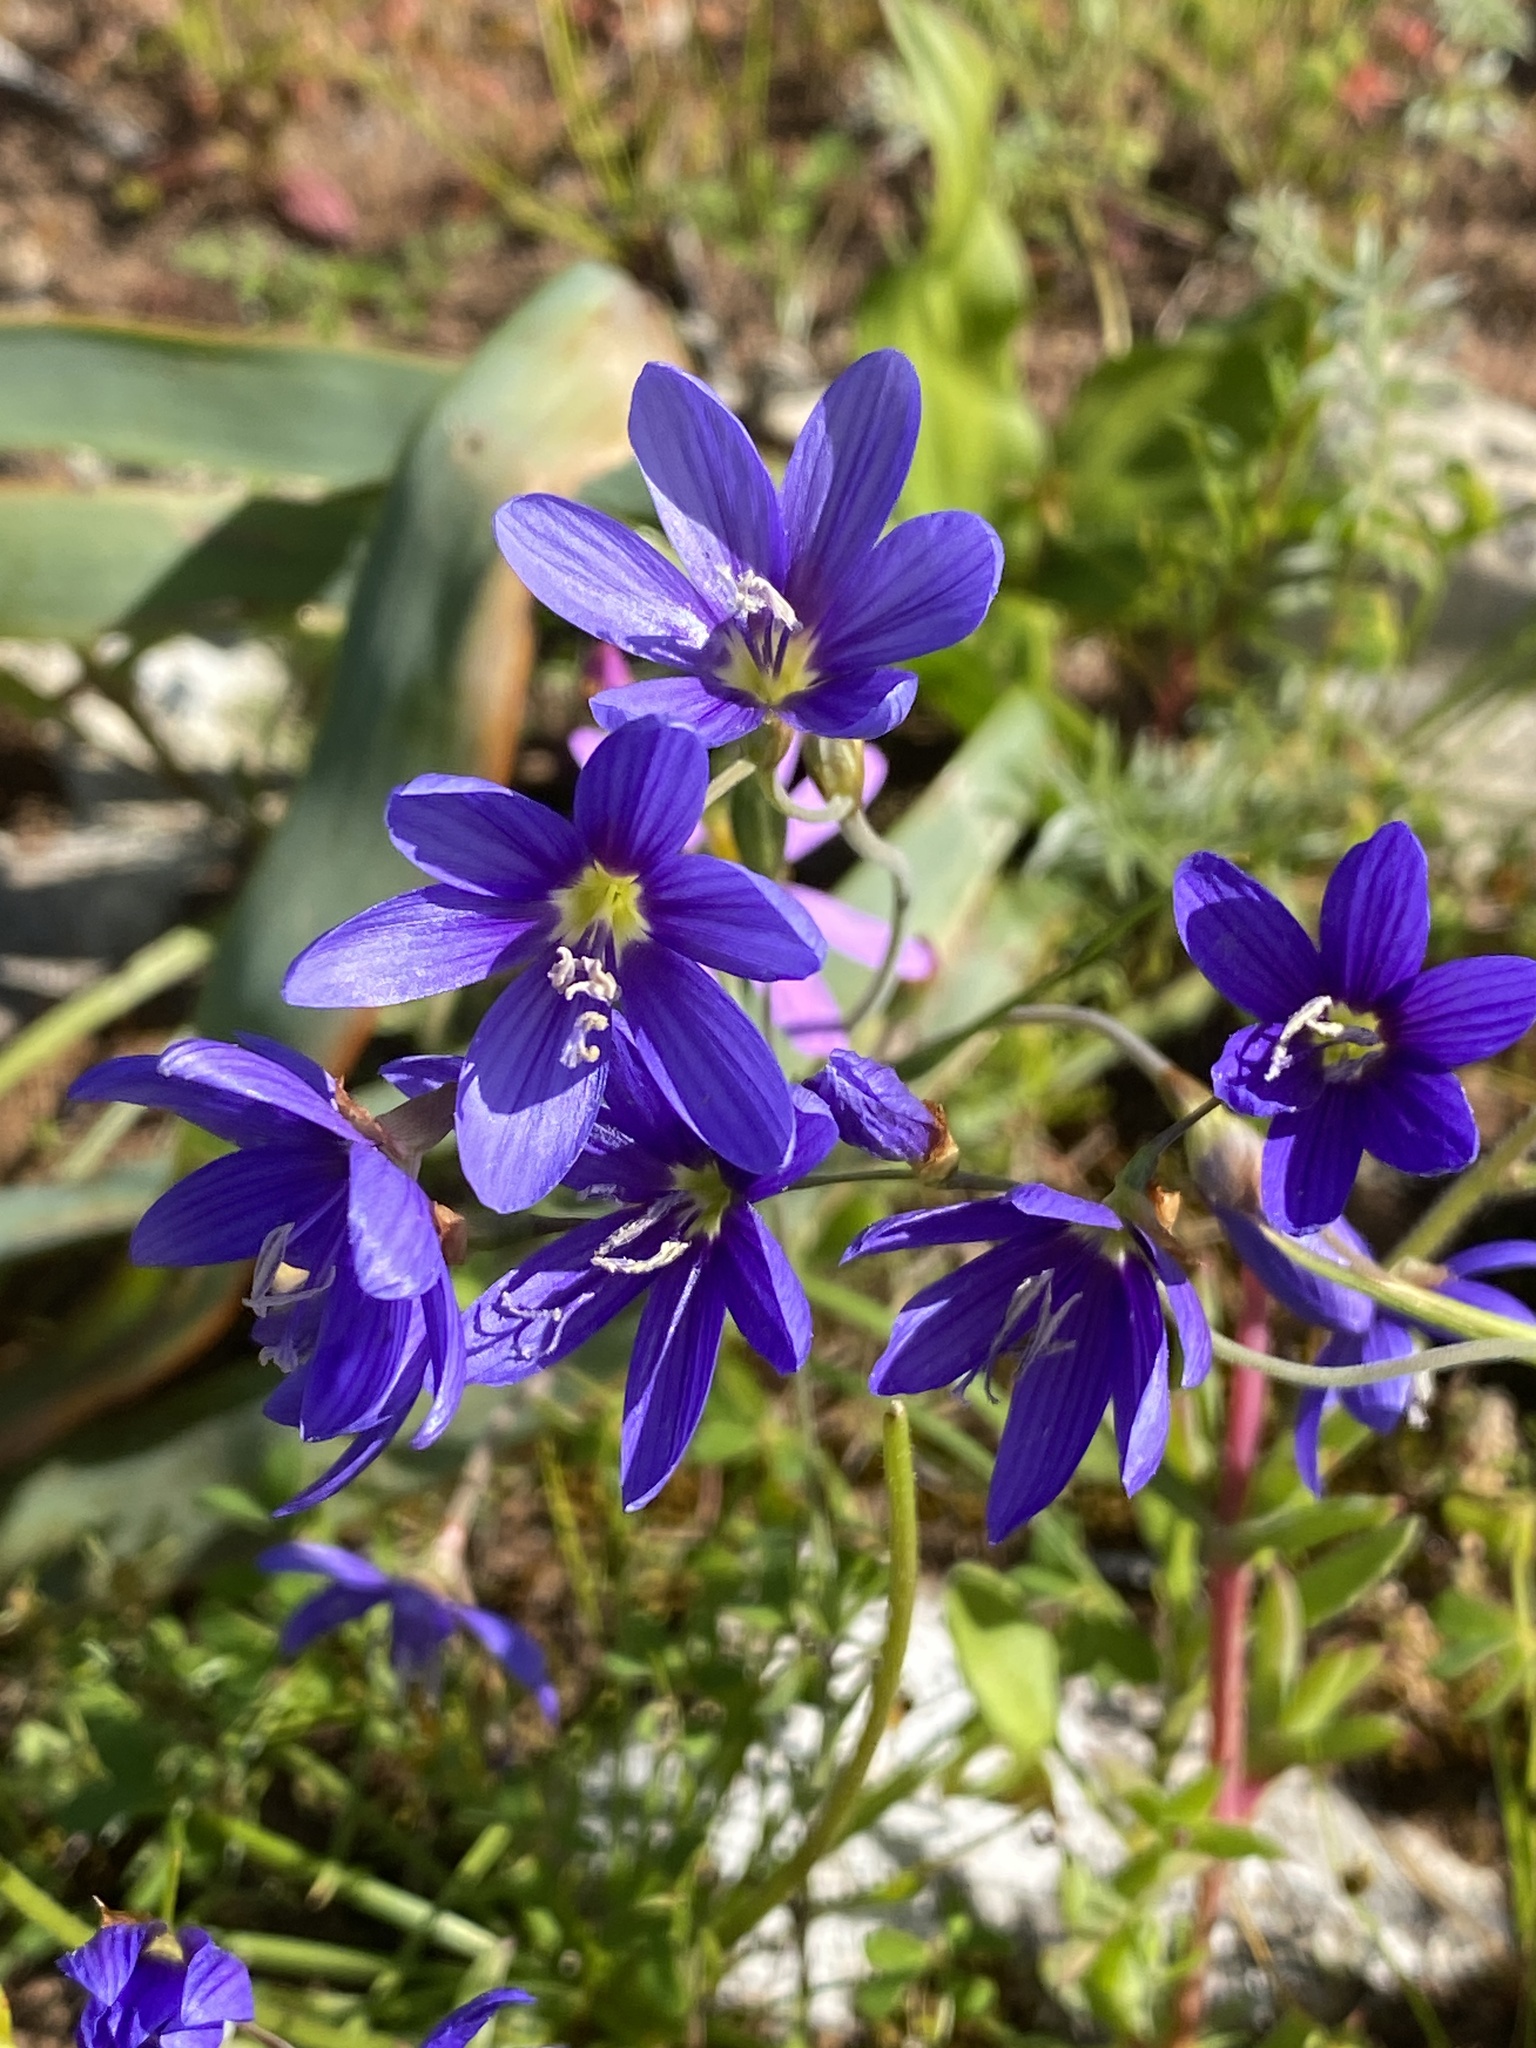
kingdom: Plantae
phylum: Tracheophyta
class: Liliopsida
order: Asparagales
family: Iridaceae
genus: Geissorhiza
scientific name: Geissorhiza lewisiae
